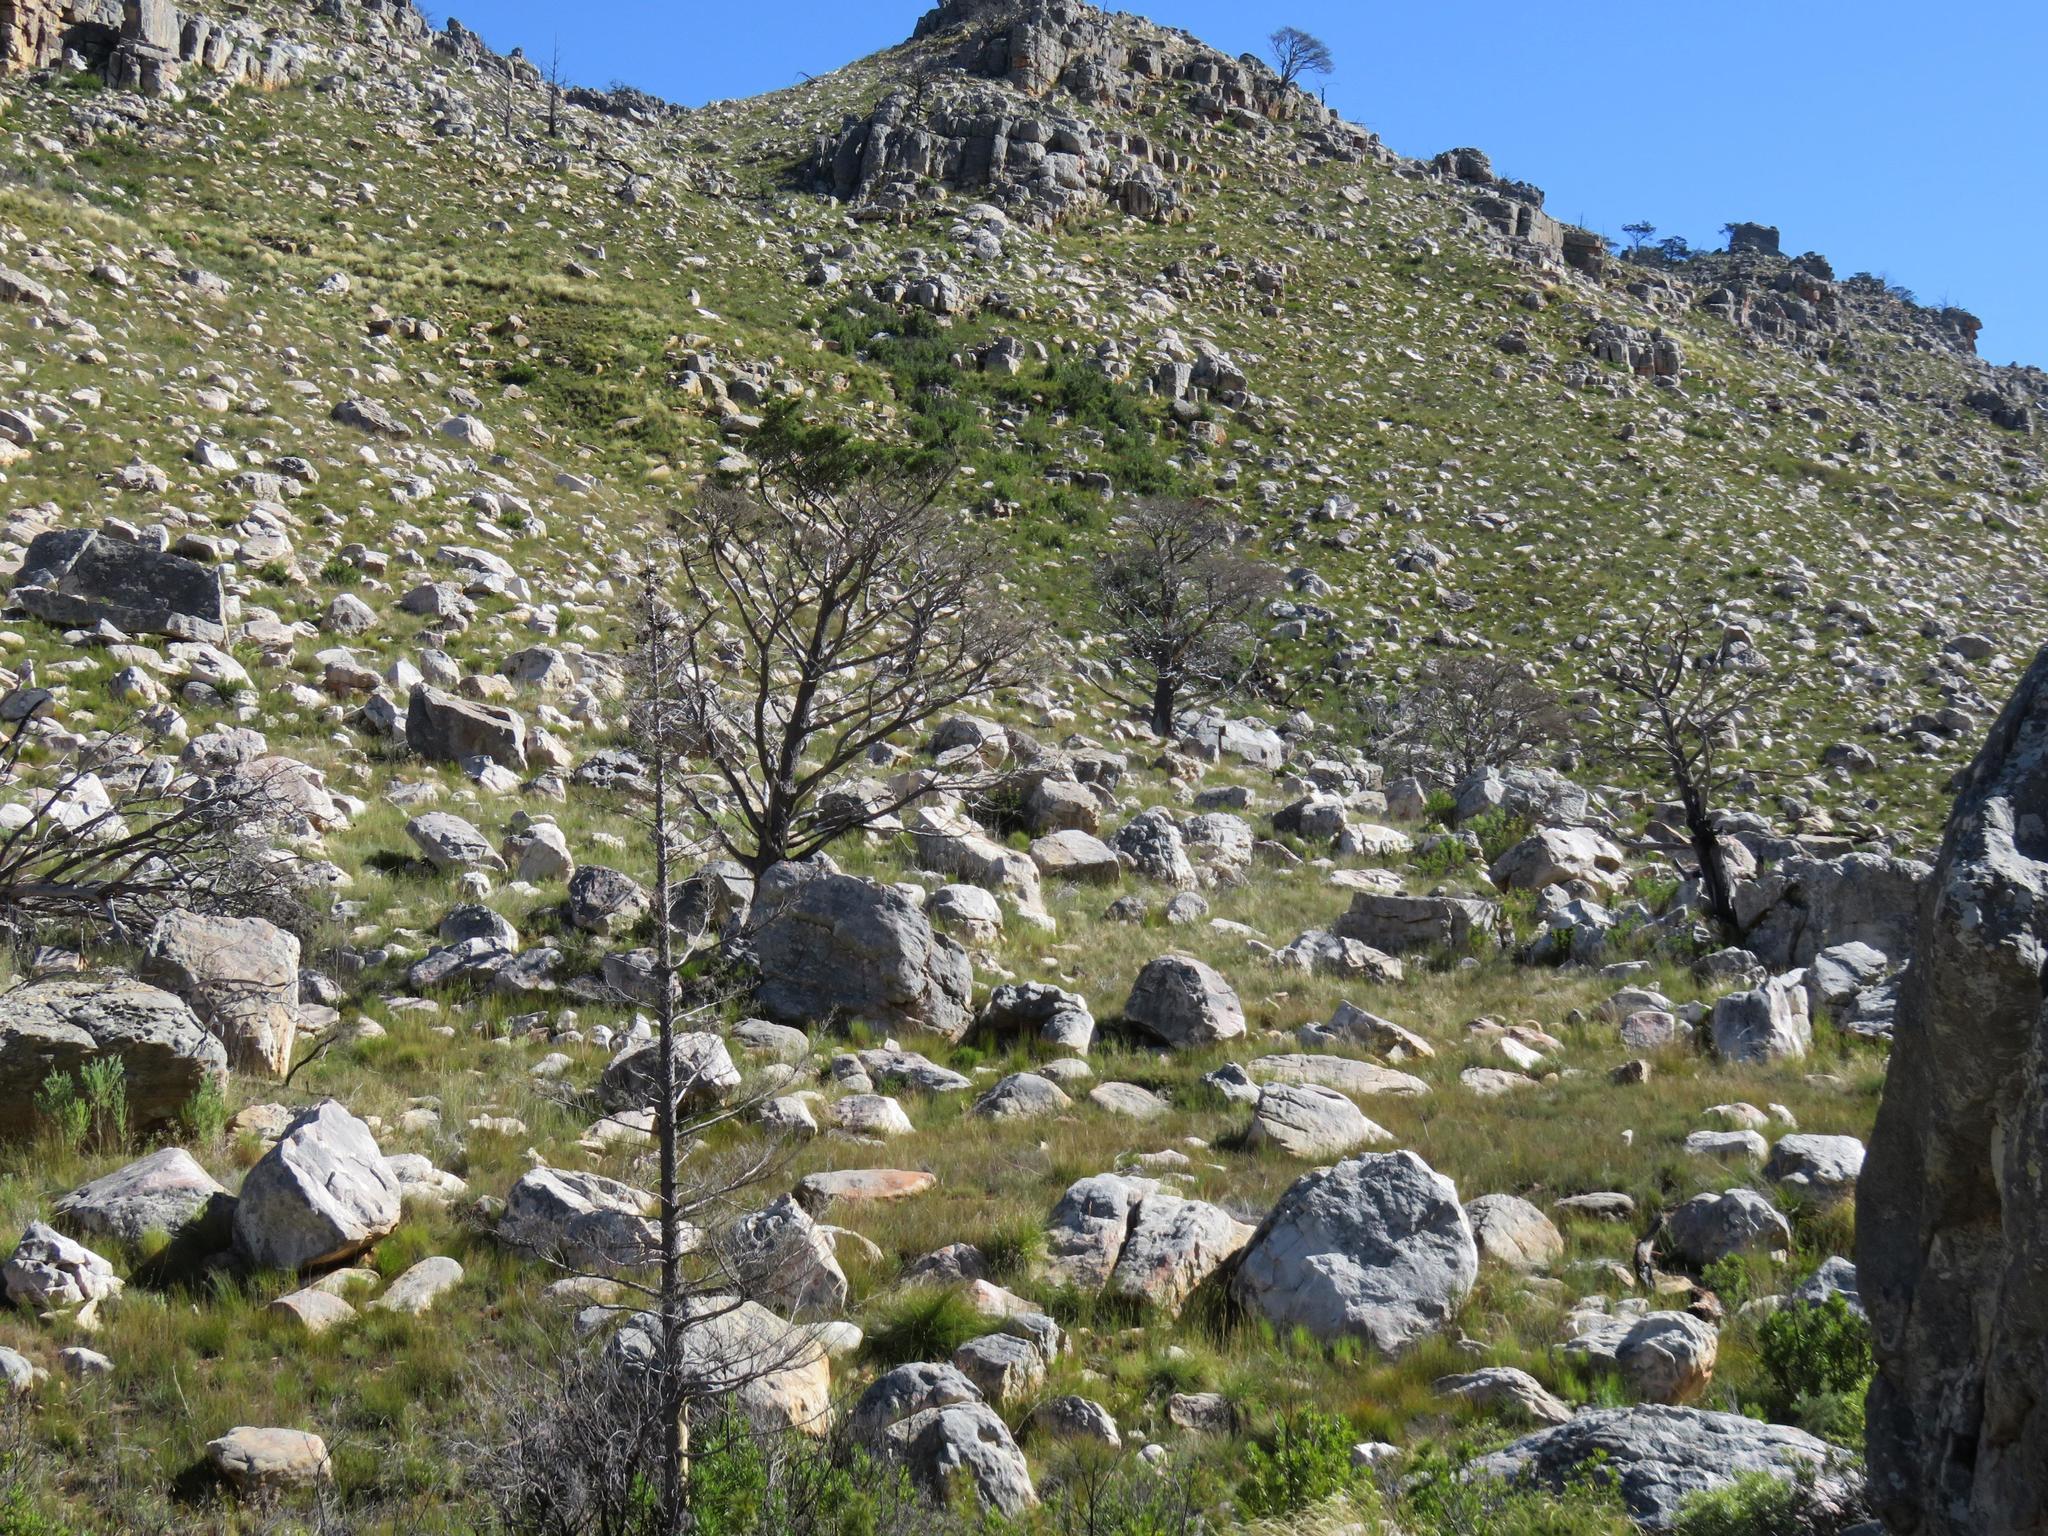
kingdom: Plantae
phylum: Tracheophyta
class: Pinopsida
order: Pinales
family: Cupressaceae
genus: Widdringtonia
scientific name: Widdringtonia nodiflora
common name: Cape cypress
